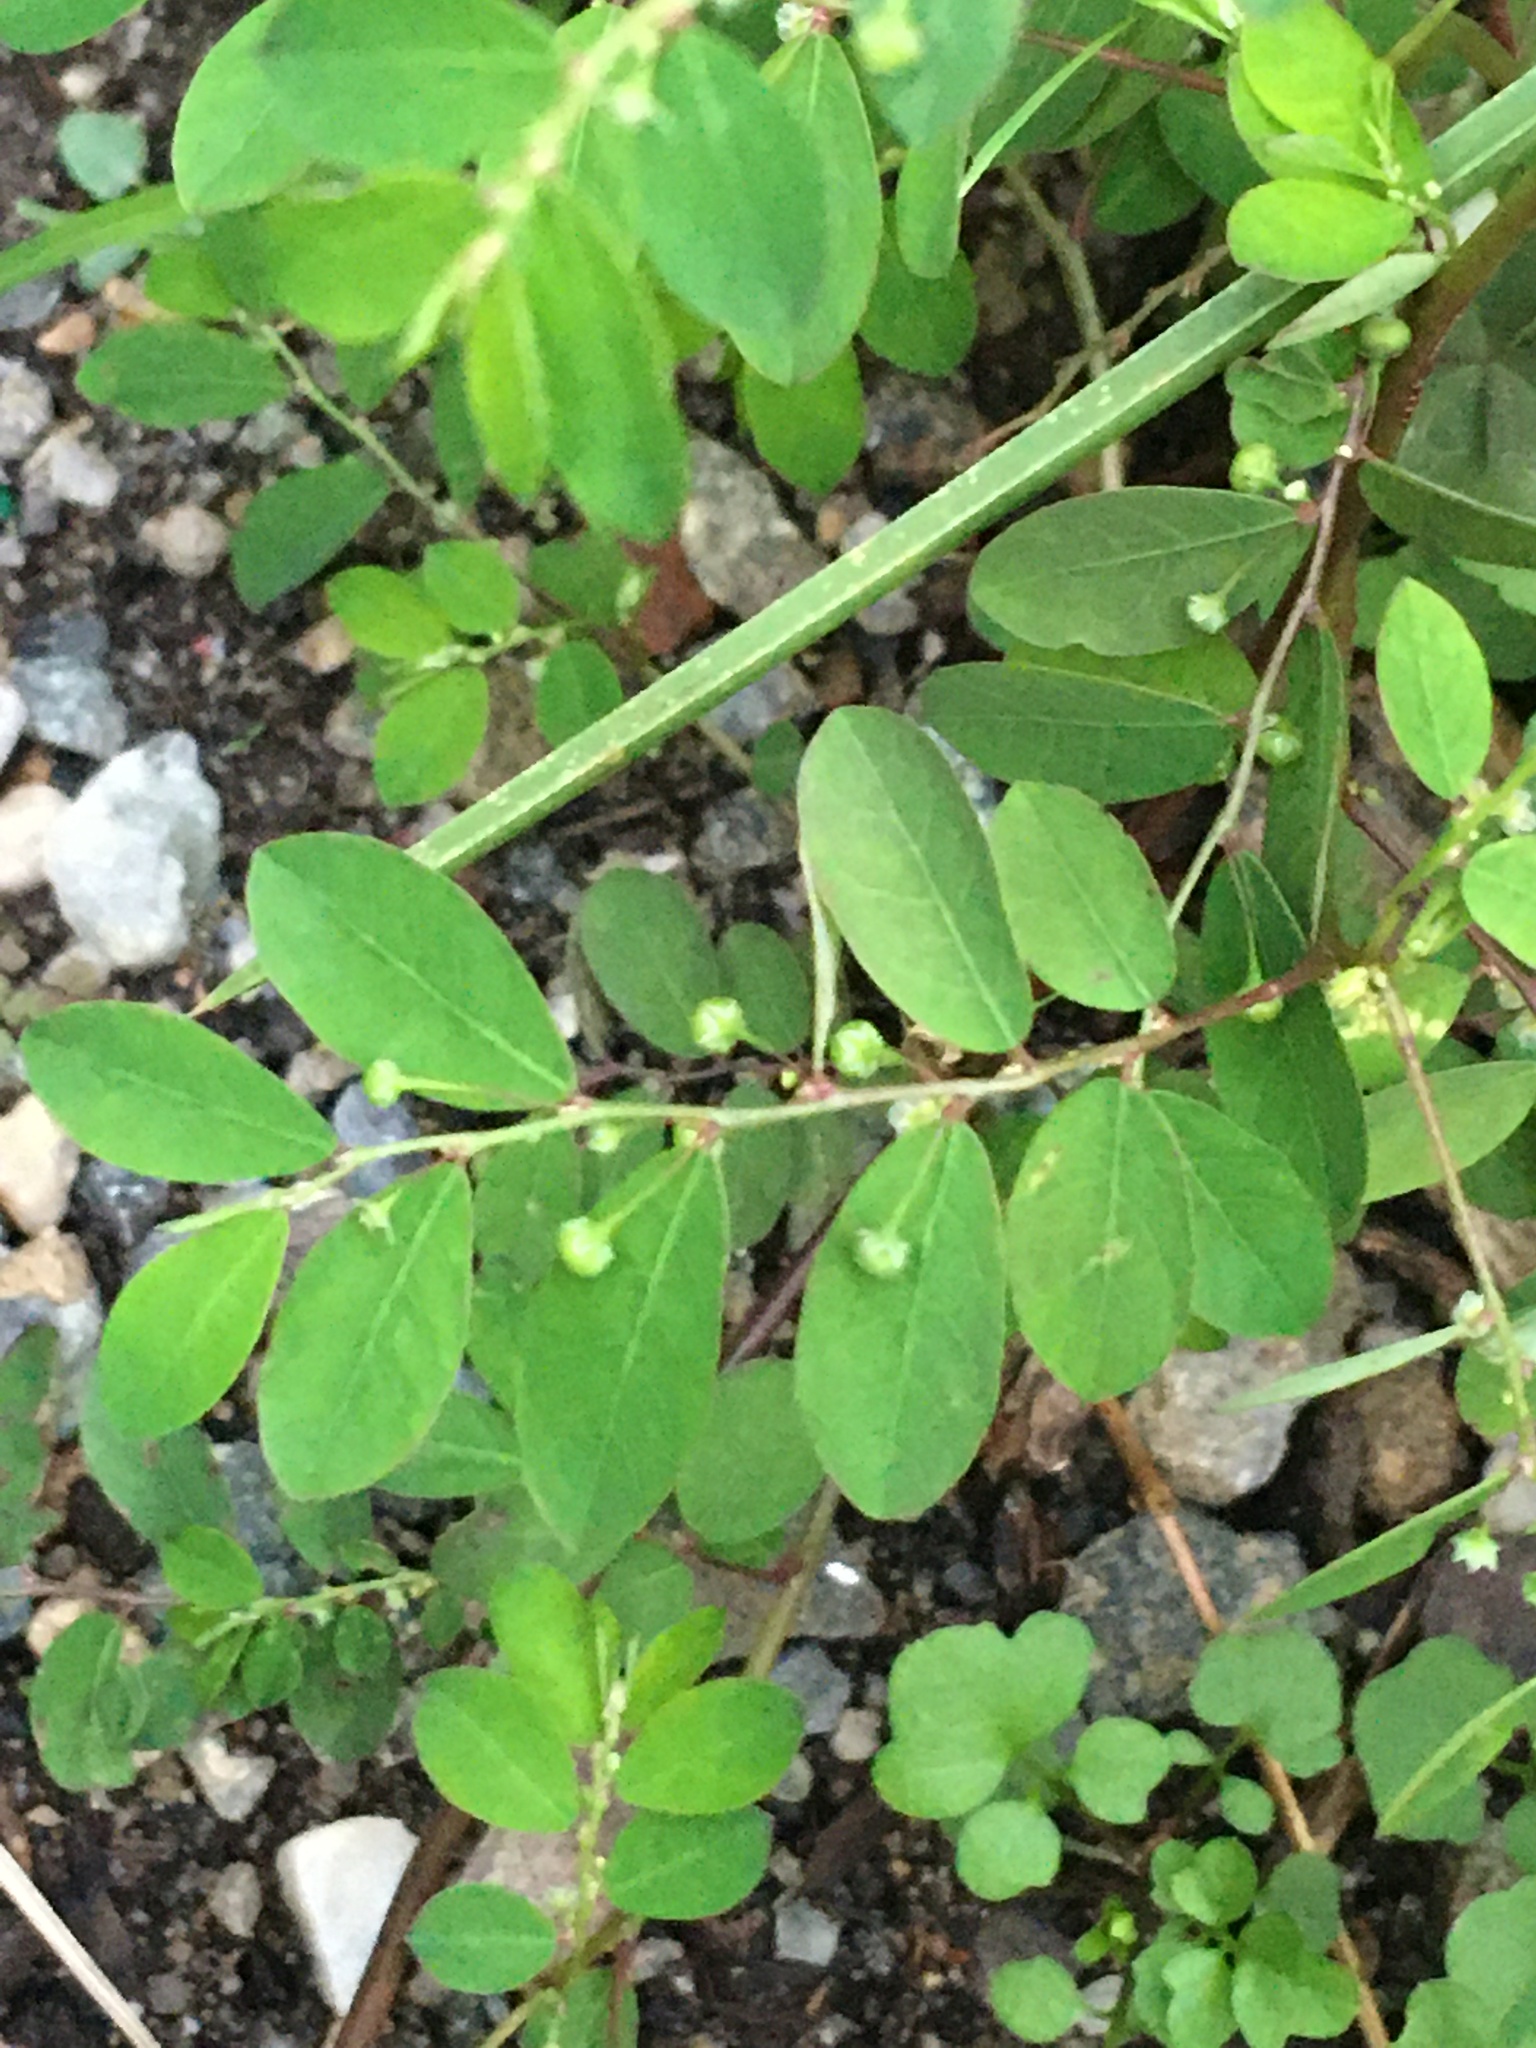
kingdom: Plantae
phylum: Tracheophyta
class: Magnoliopsida
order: Malpighiales
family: Phyllanthaceae
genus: Phyllanthus
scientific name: Phyllanthus tenellus
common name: Mascarene island leaf-flower
